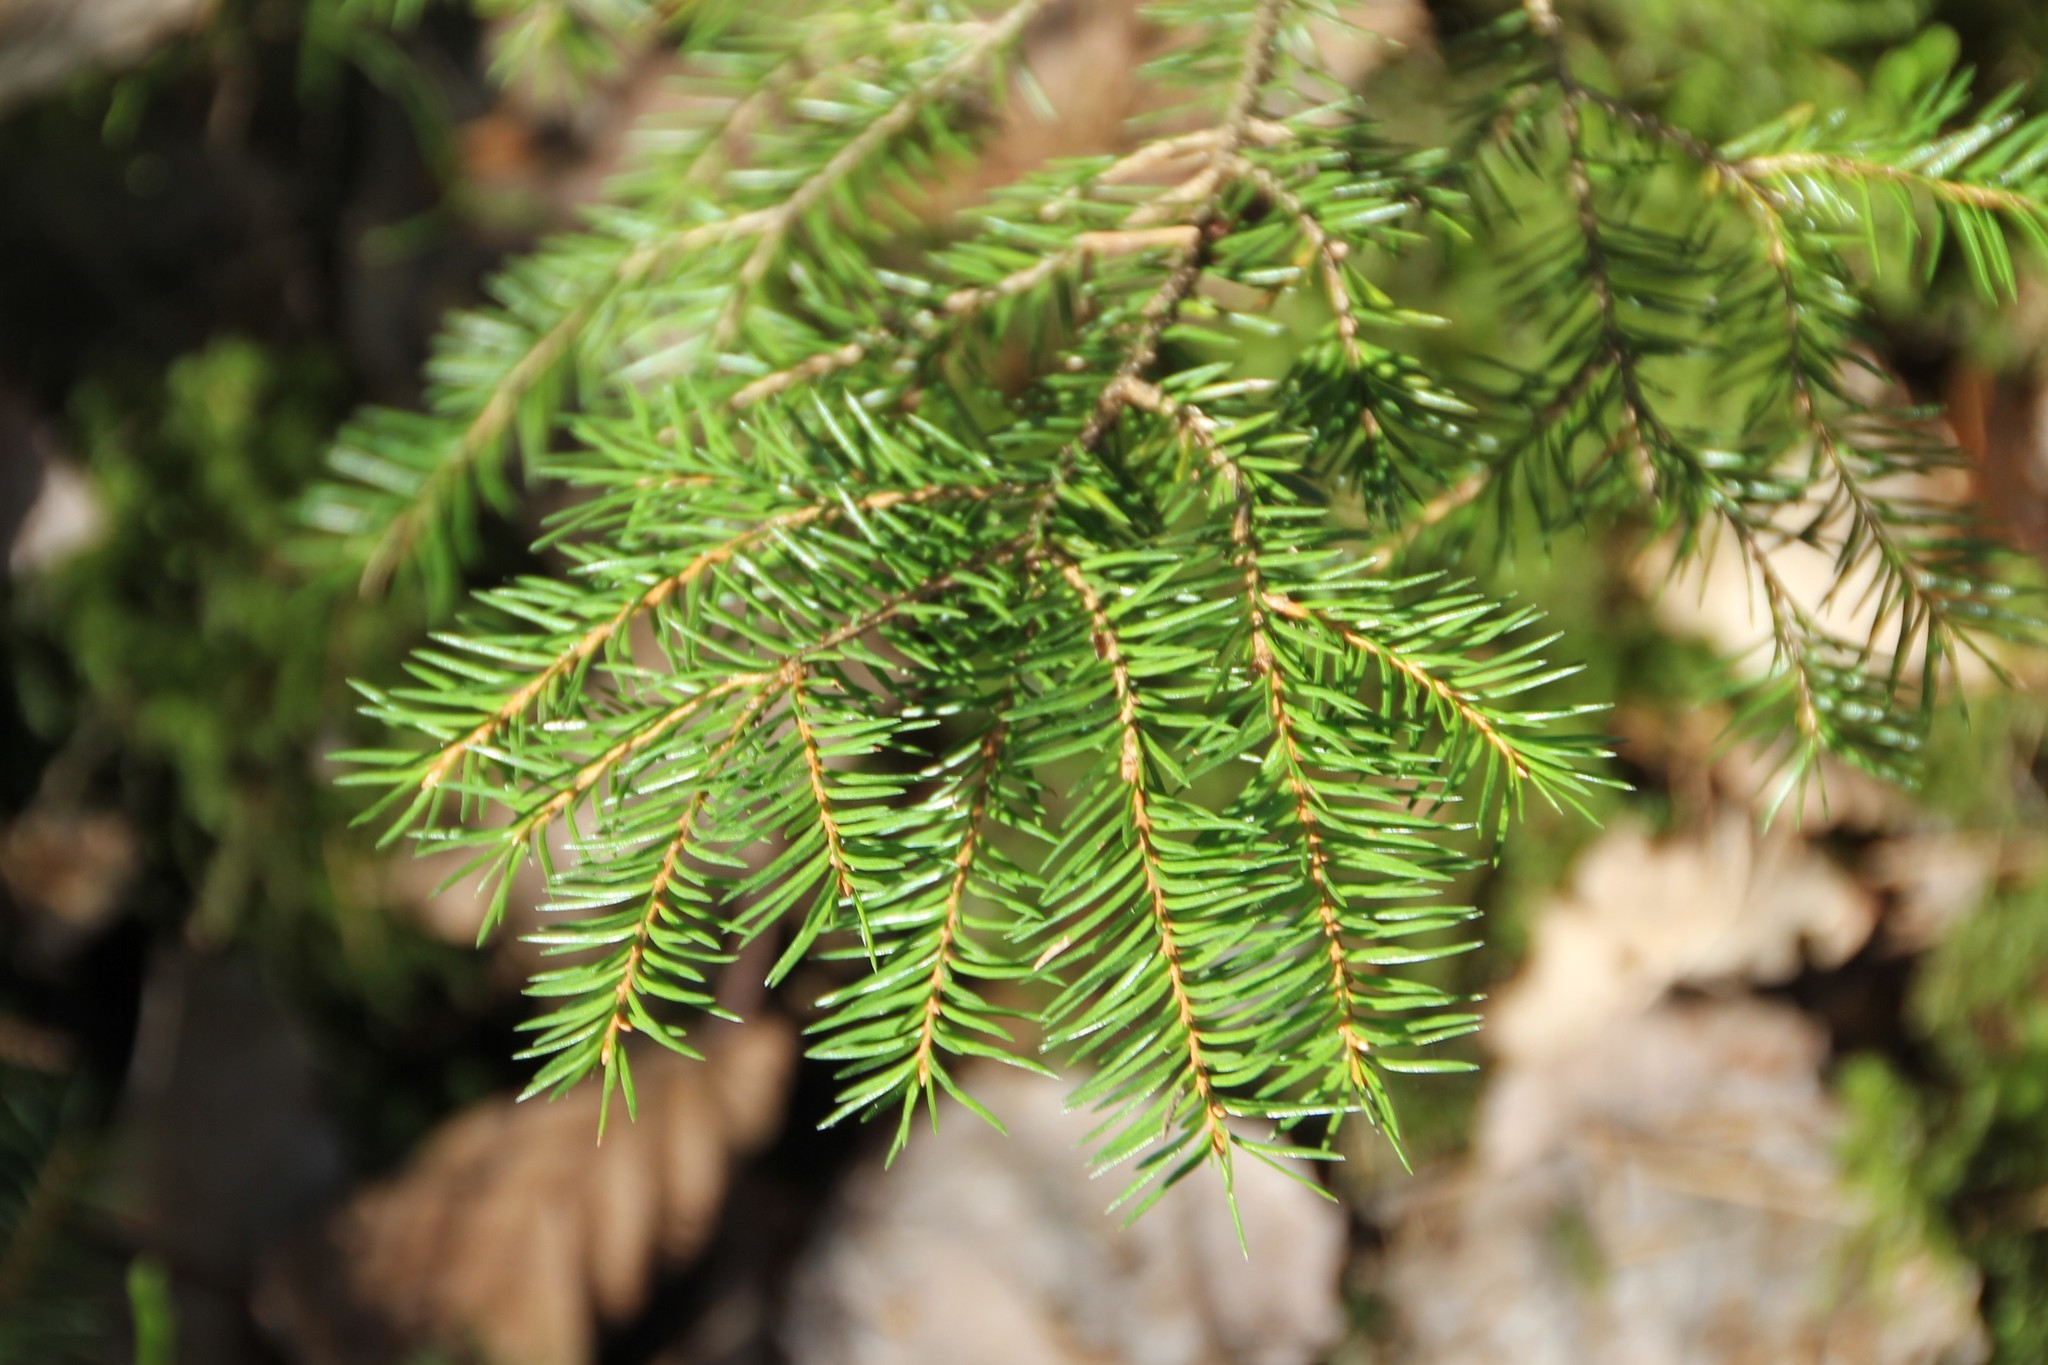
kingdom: Plantae
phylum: Tracheophyta
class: Pinopsida
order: Pinales
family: Pinaceae
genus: Picea
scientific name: Picea abies
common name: Norway spruce
